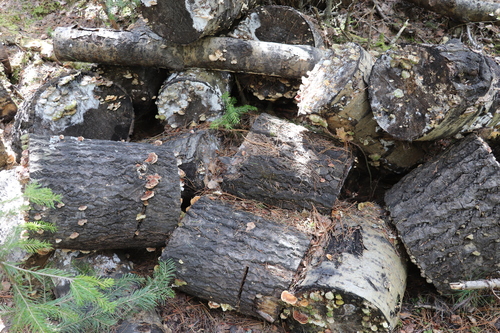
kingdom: Fungi
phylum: Basidiomycota
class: Agaricomycetes
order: Polyporales
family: Polyporaceae
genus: Trametes
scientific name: Trametes ochracea
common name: Ochre bracket
